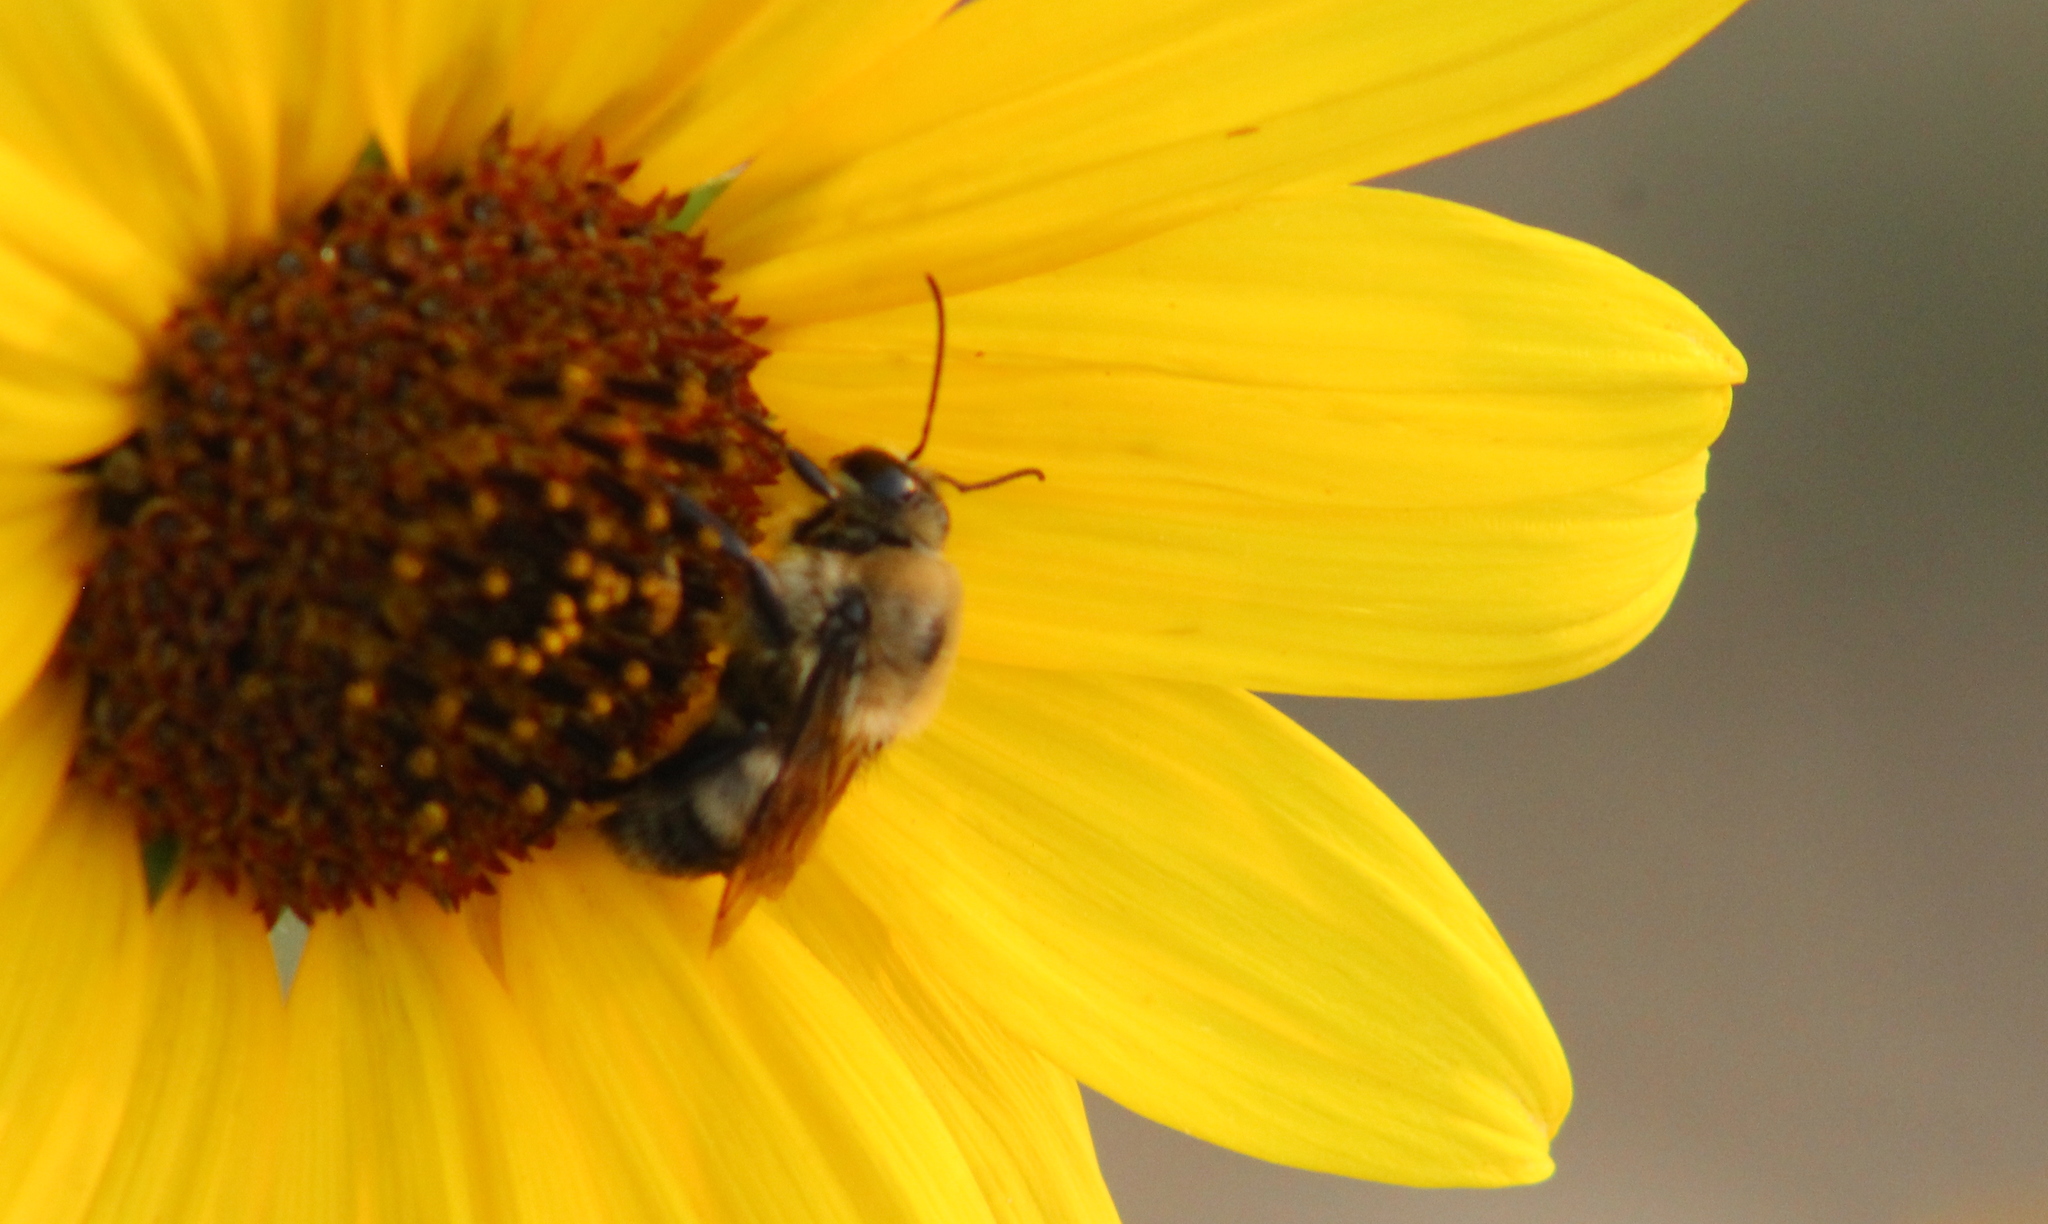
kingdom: Animalia
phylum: Arthropoda
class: Insecta
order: Hymenoptera
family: Apidae
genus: Bombus
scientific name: Bombus griseocollis
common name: Brown-belted bumble bee
